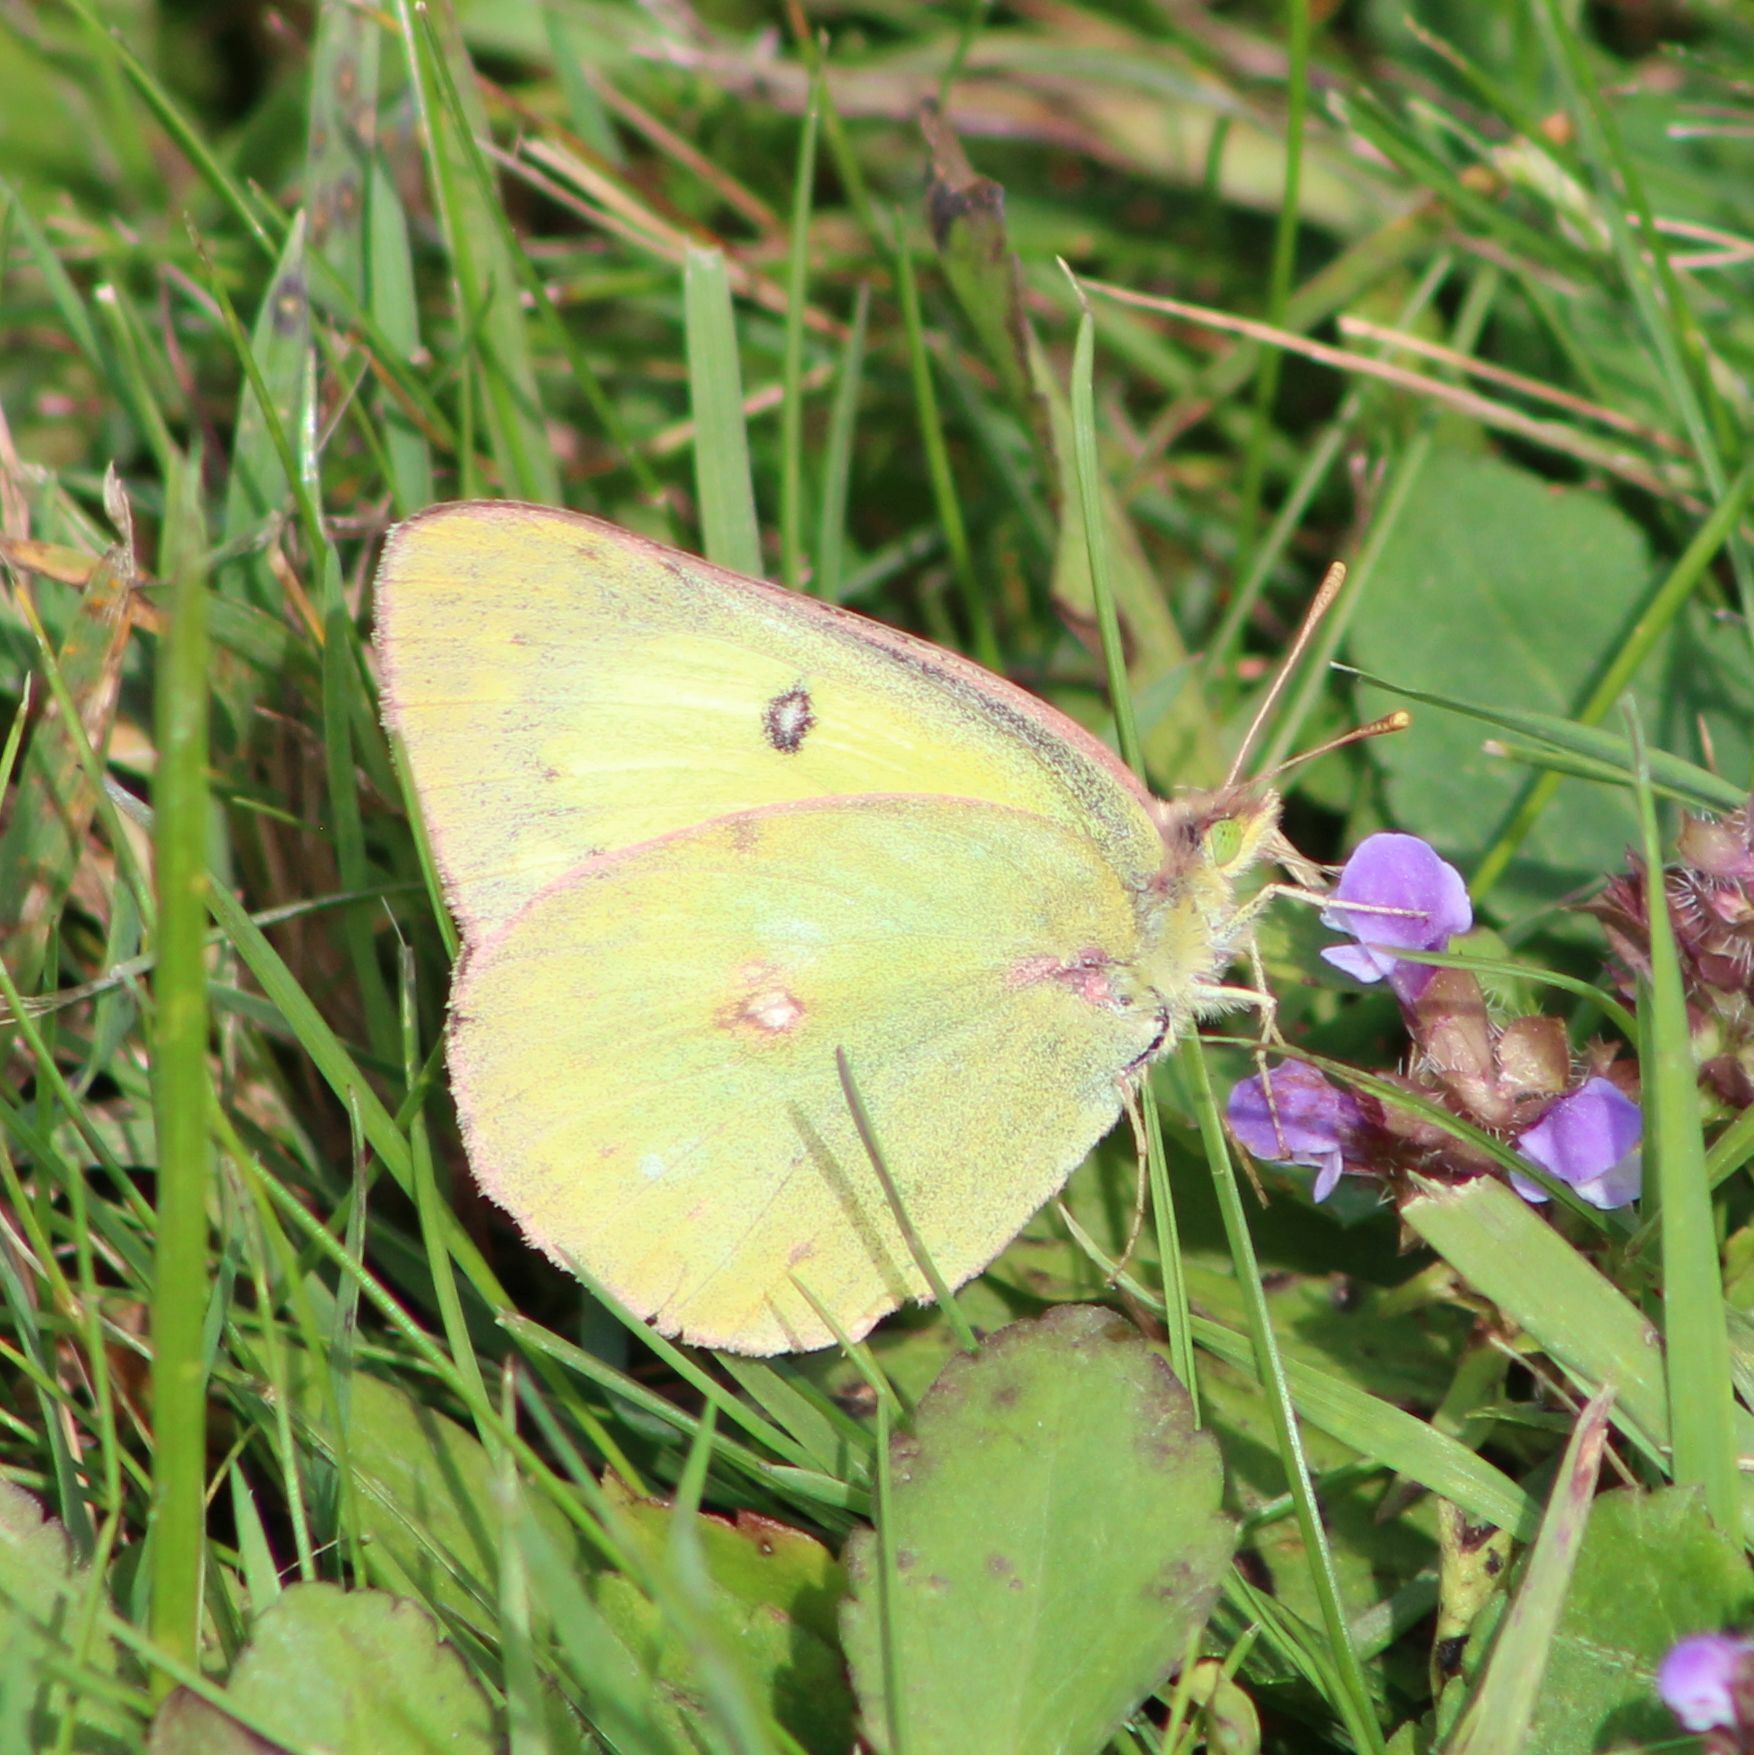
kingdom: Animalia
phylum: Arthropoda
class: Insecta
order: Lepidoptera
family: Pieridae
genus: Colias
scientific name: Colias philodice
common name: Clouded sulphur
